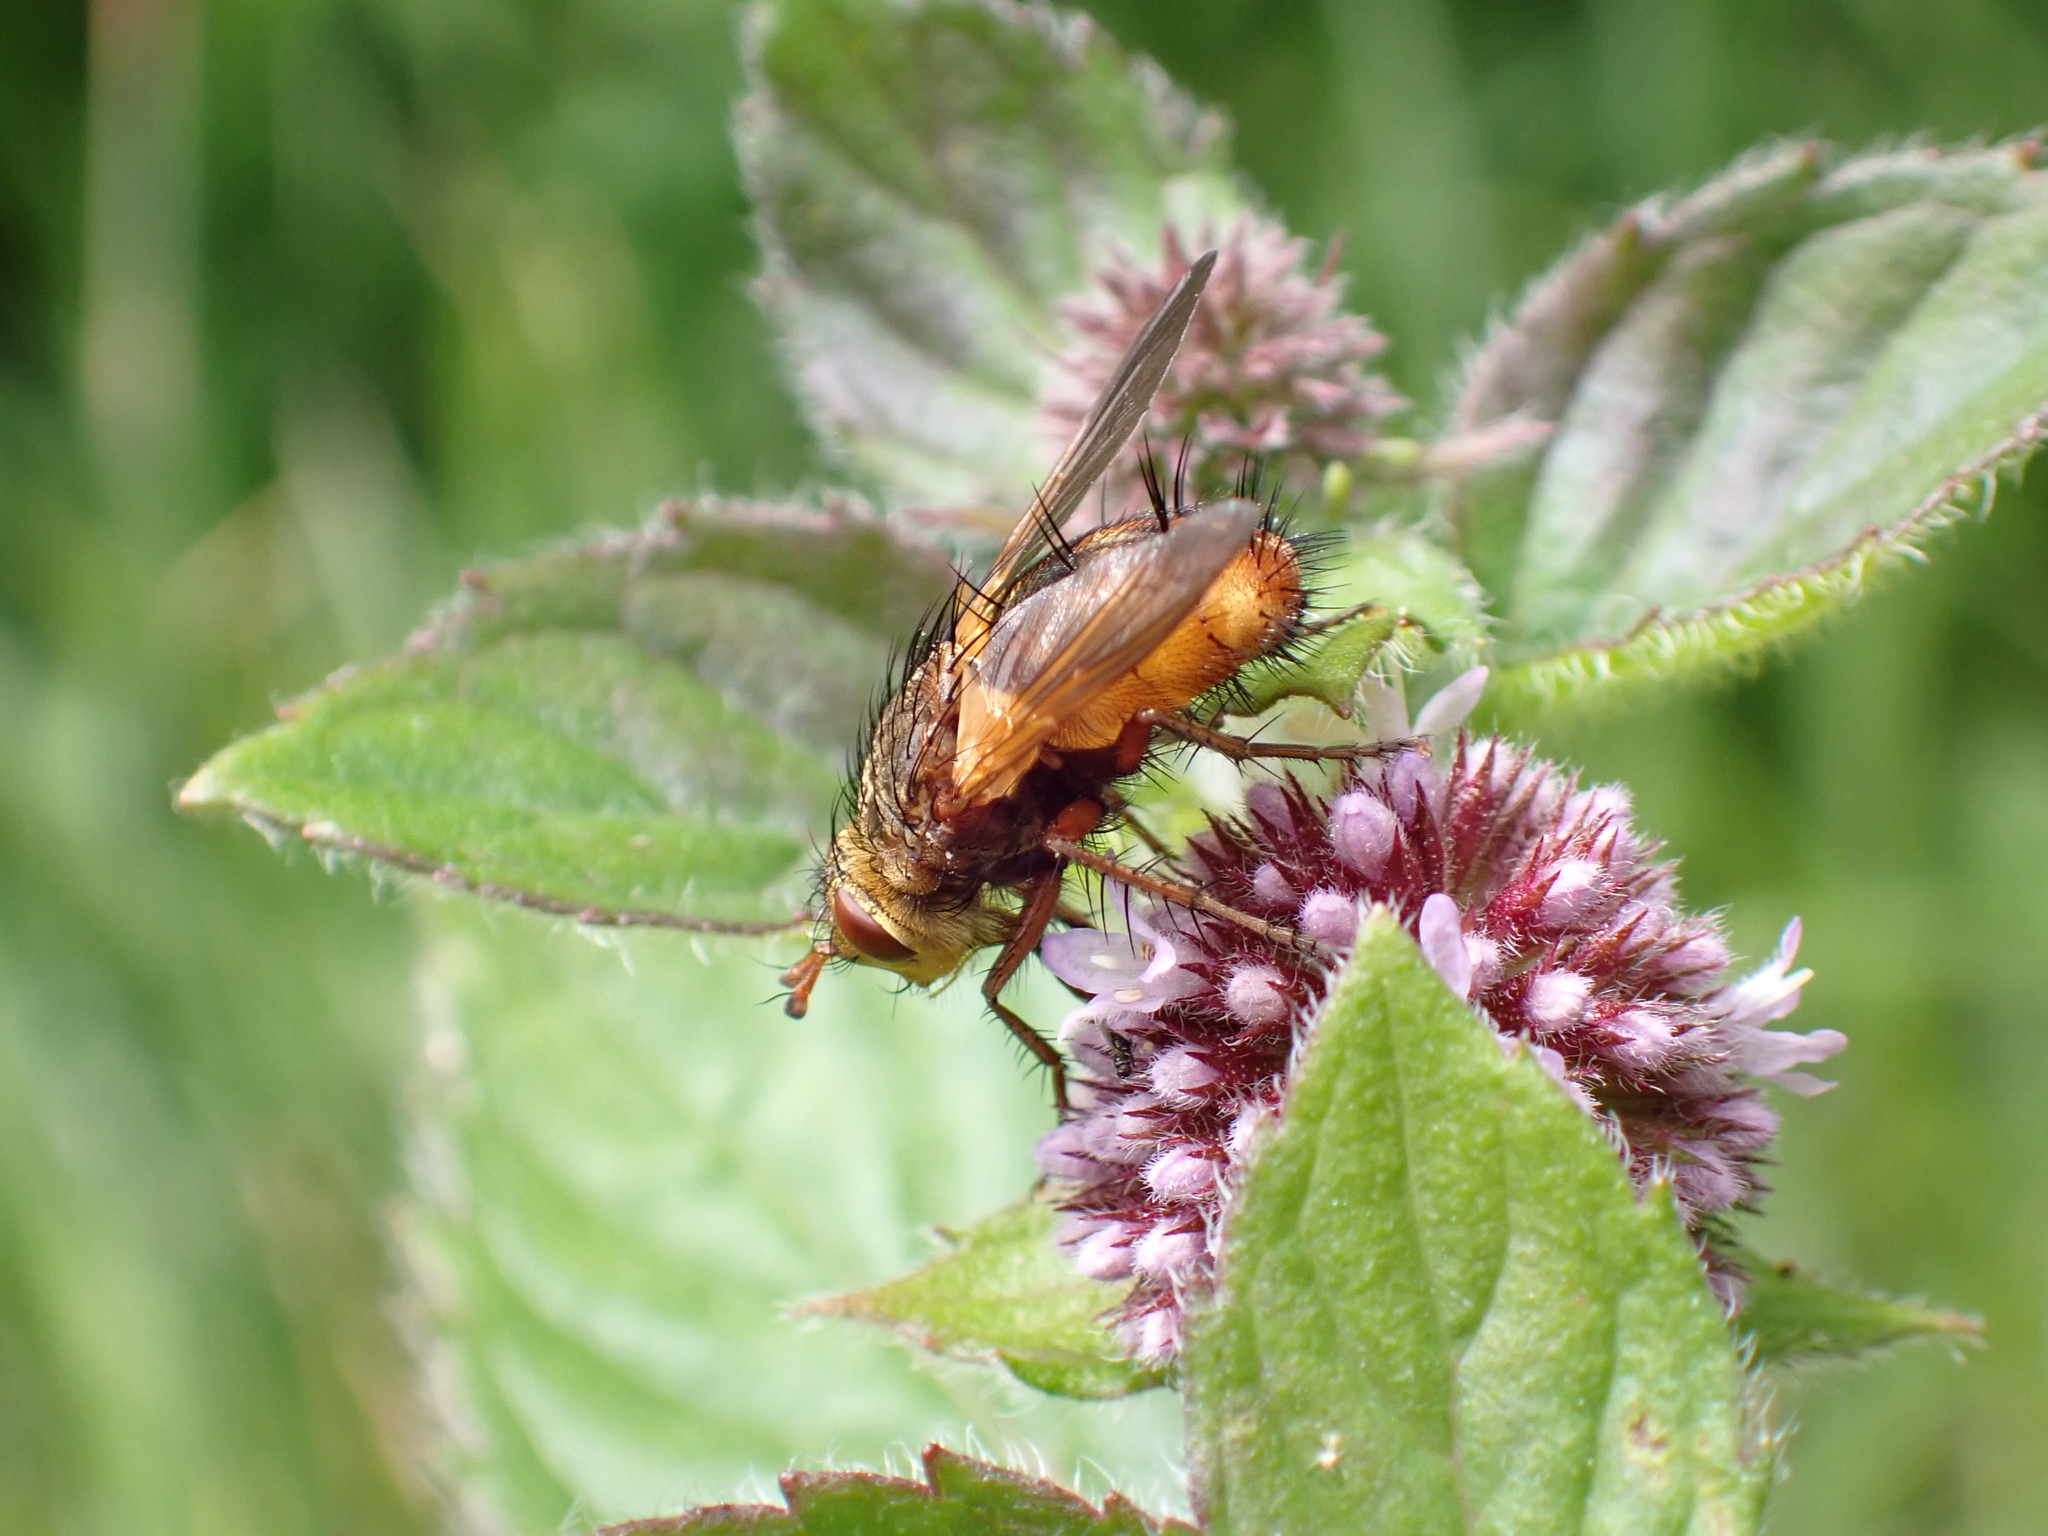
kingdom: Animalia
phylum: Arthropoda
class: Insecta
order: Diptera
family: Tachinidae
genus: Tachina
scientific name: Tachina fera
